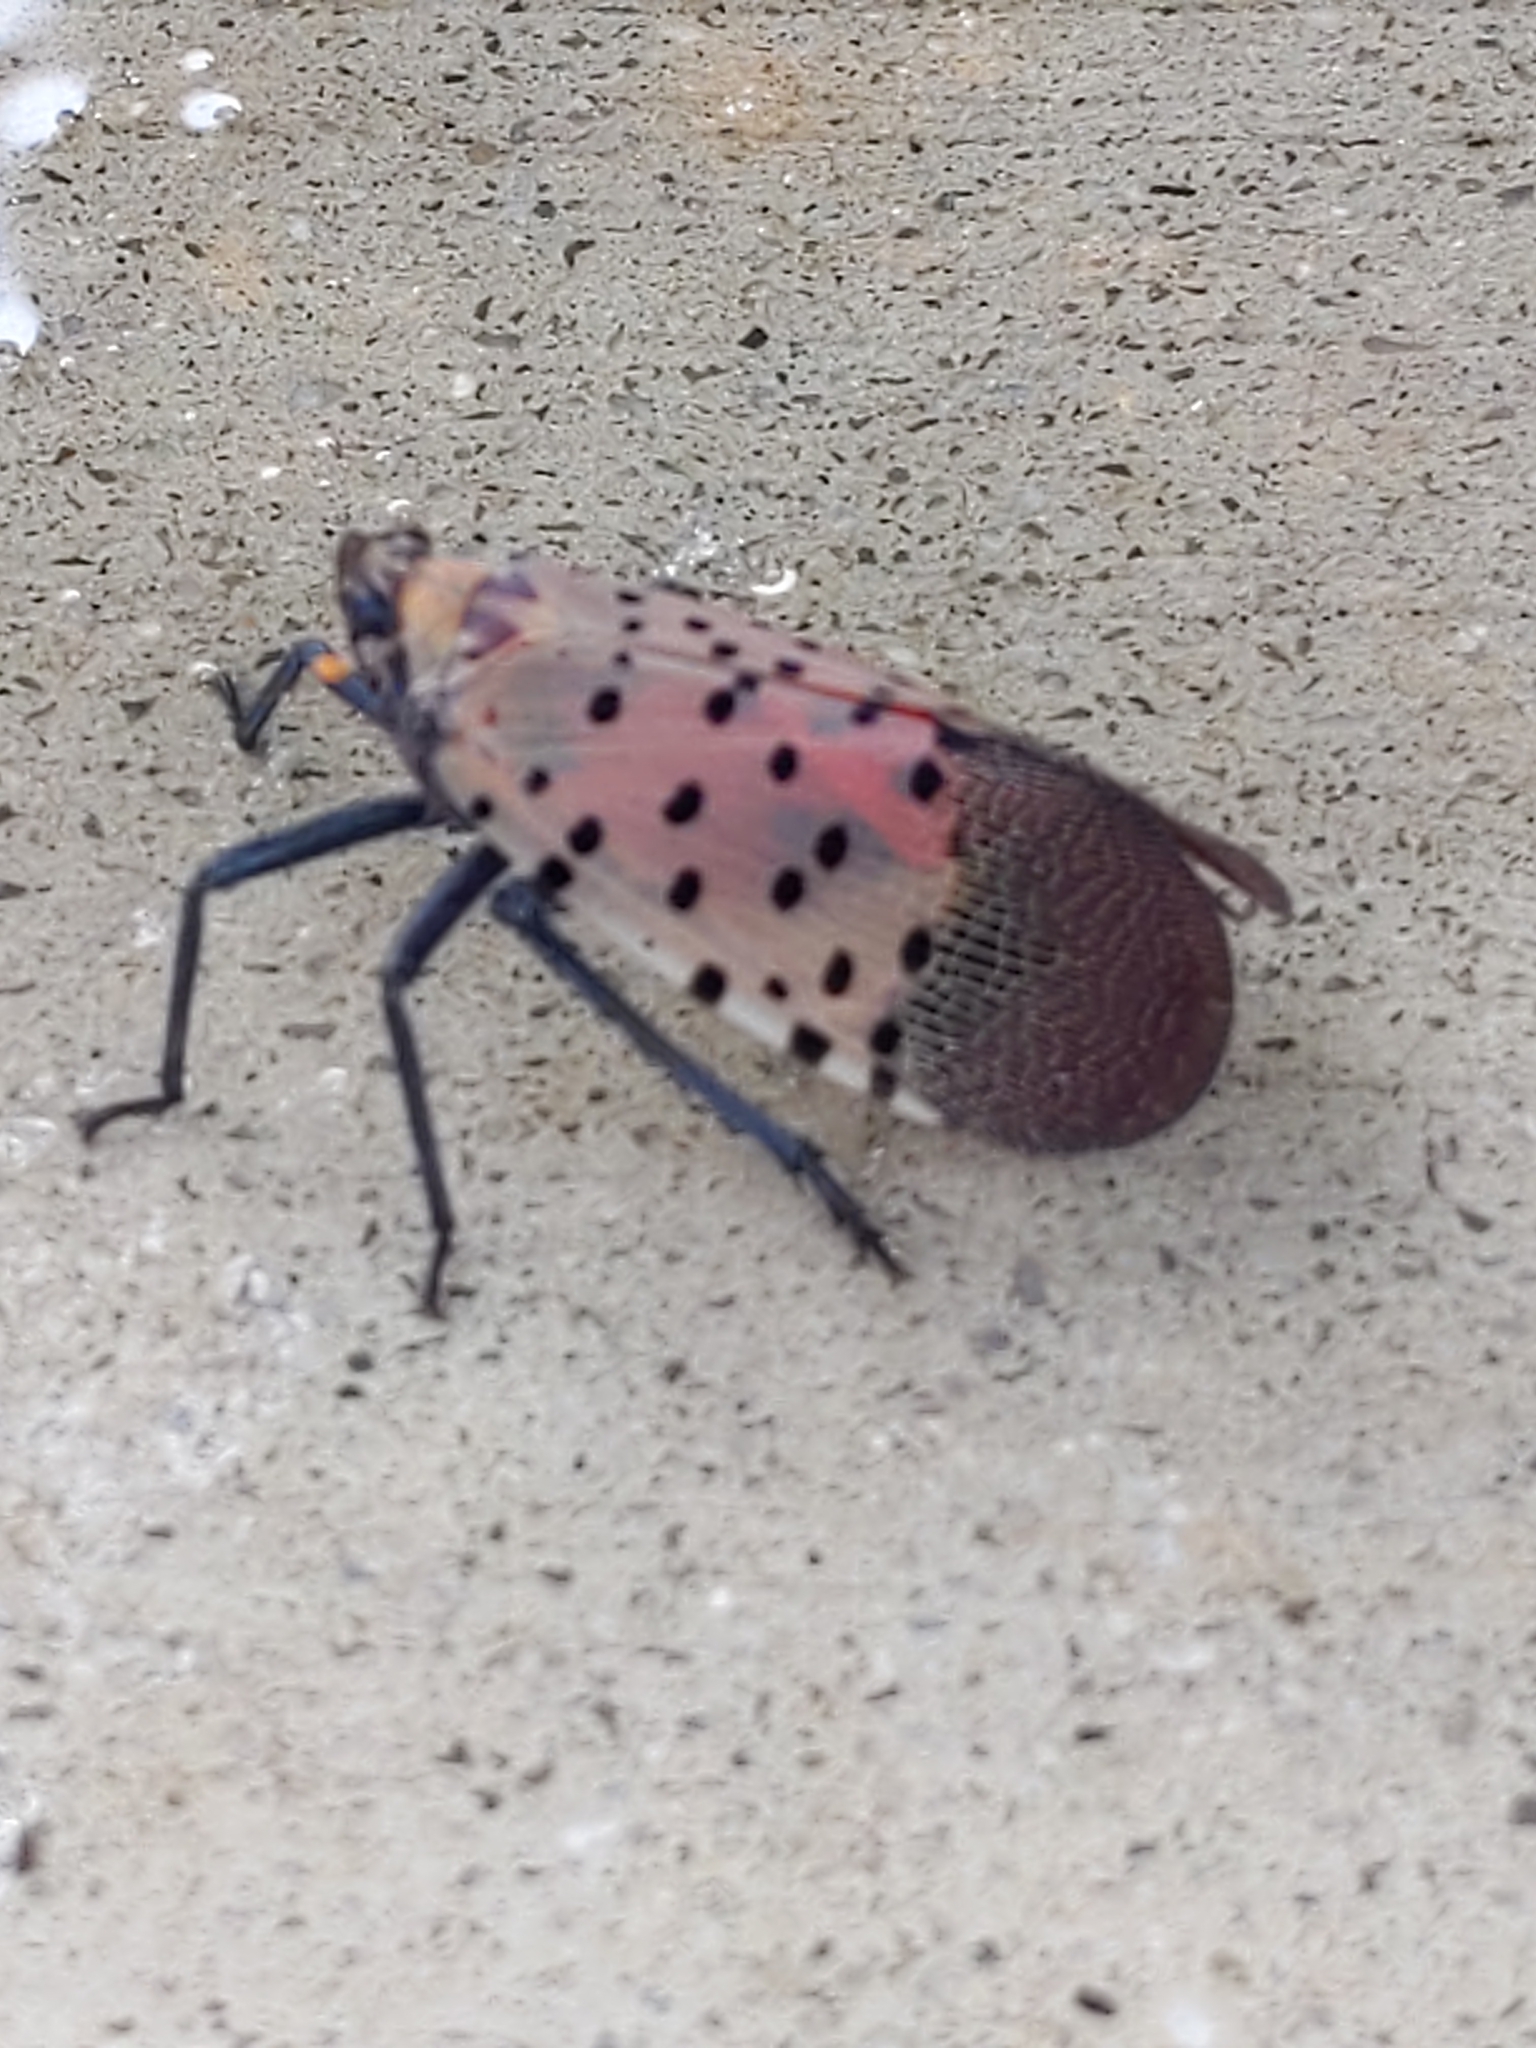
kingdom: Animalia
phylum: Arthropoda
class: Insecta
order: Hemiptera
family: Fulgoridae
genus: Lycorma
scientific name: Lycorma delicatula
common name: Spotted lanternfly
